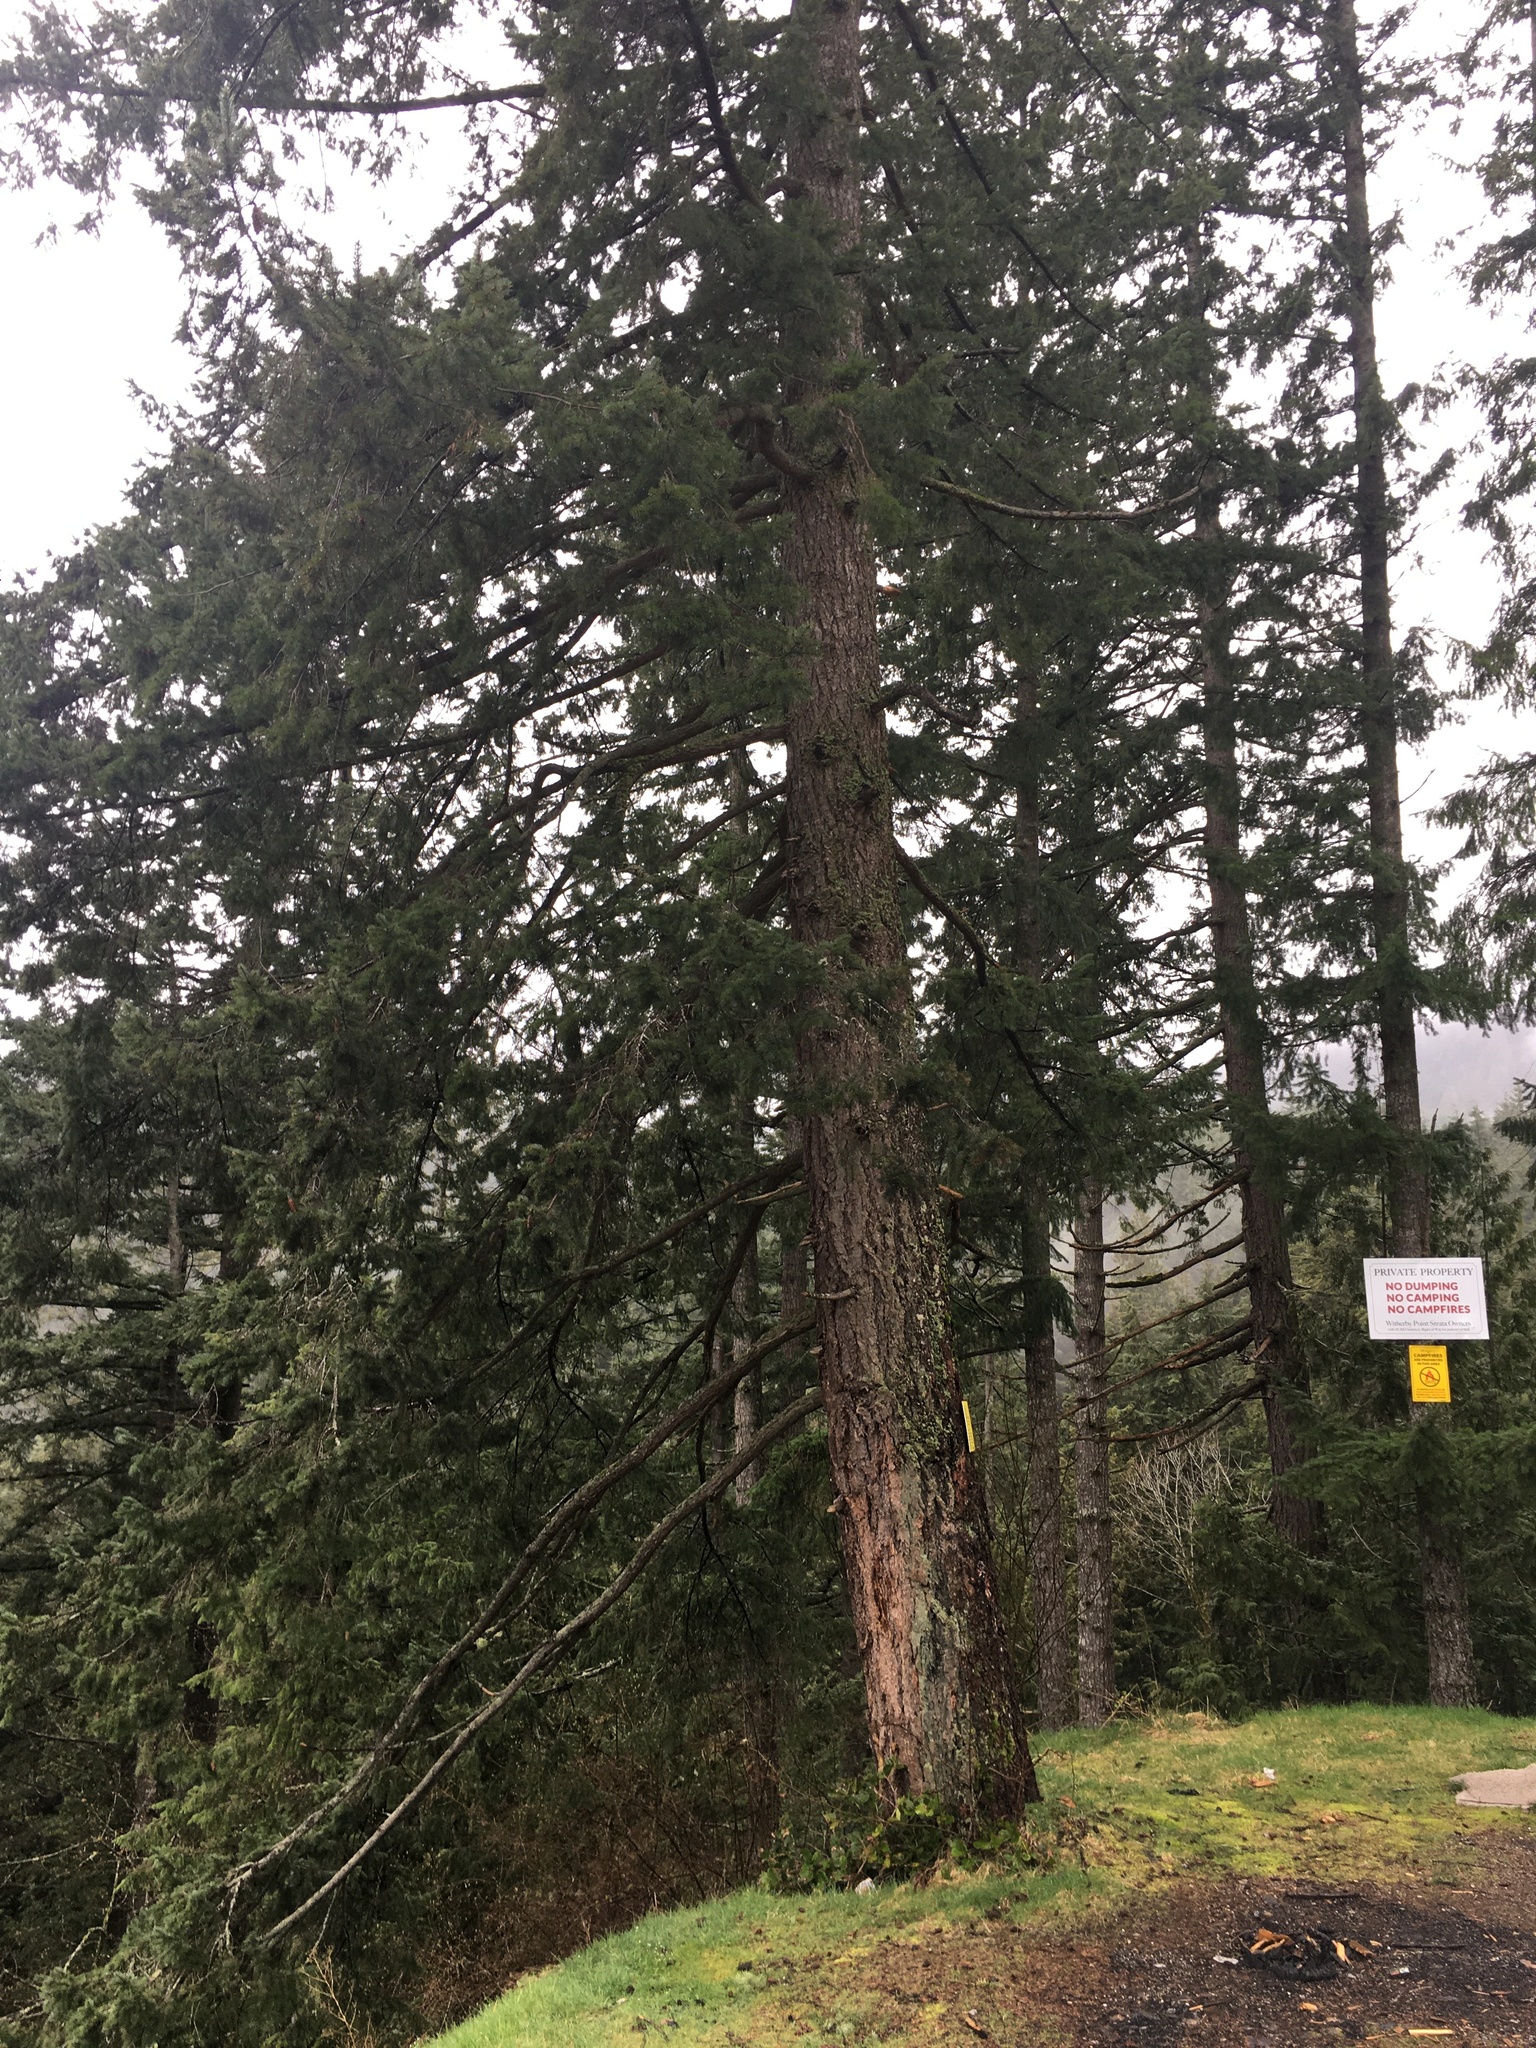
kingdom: Plantae
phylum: Tracheophyta
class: Pinopsida
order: Pinales
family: Pinaceae
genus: Pseudotsuga
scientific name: Pseudotsuga menziesii
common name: Douglas fir
